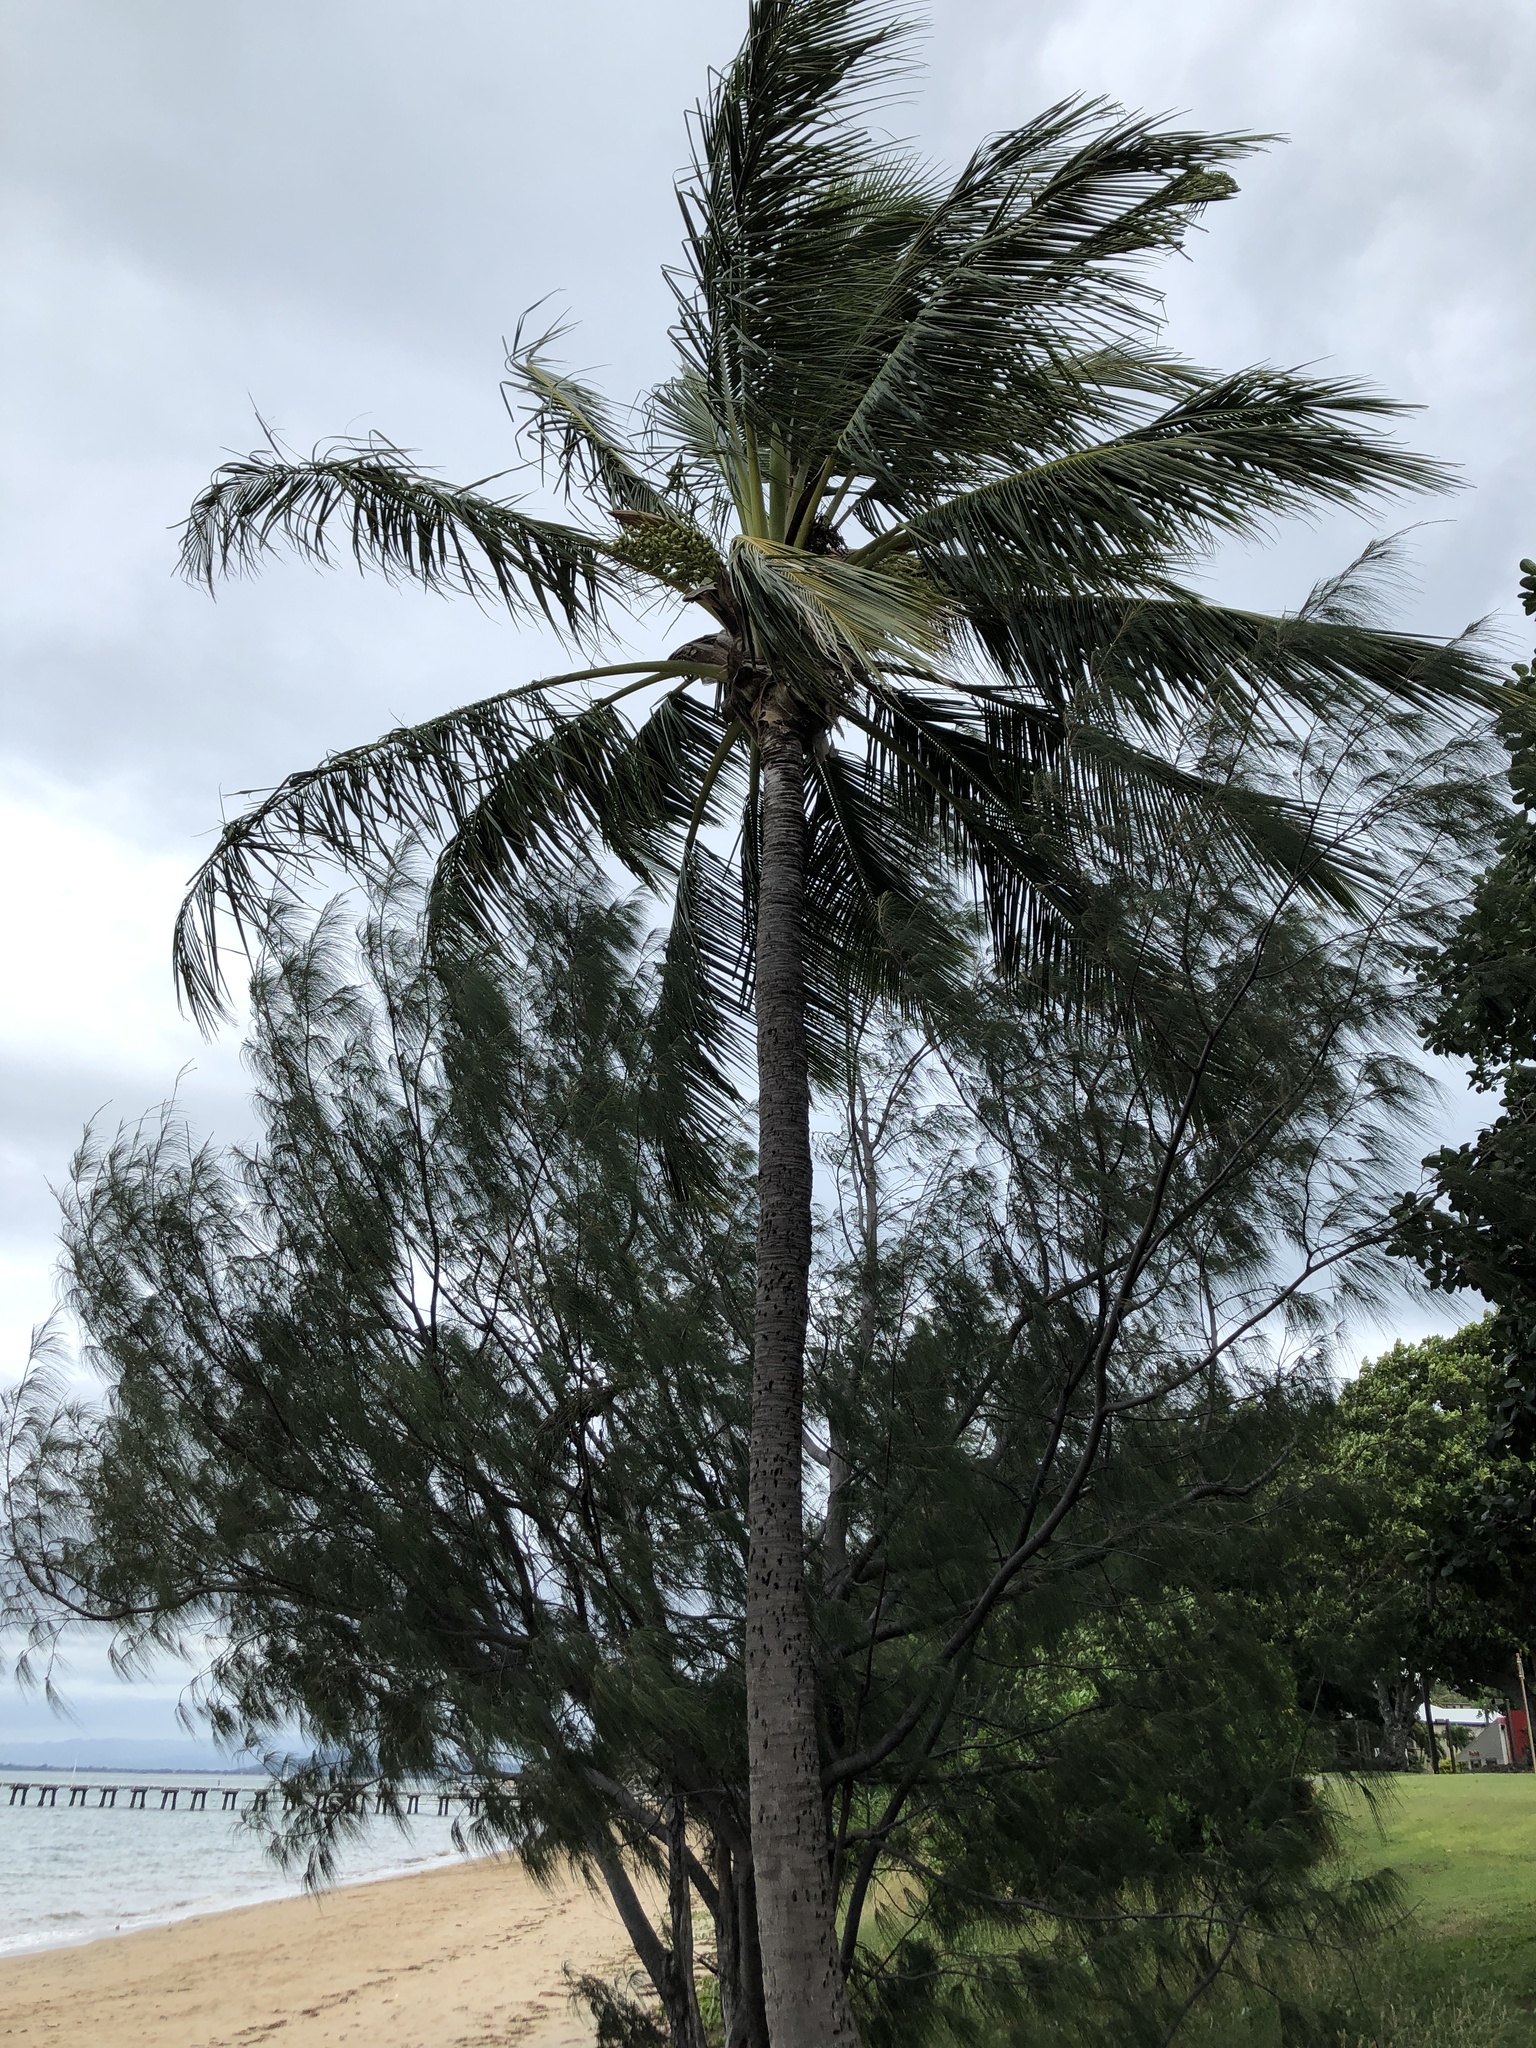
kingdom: Plantae
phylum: Tracheophyta
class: Liliopsida
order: Arecales
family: Arecaceae
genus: Cocos
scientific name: Cocos nucifera
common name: Coconut palm
